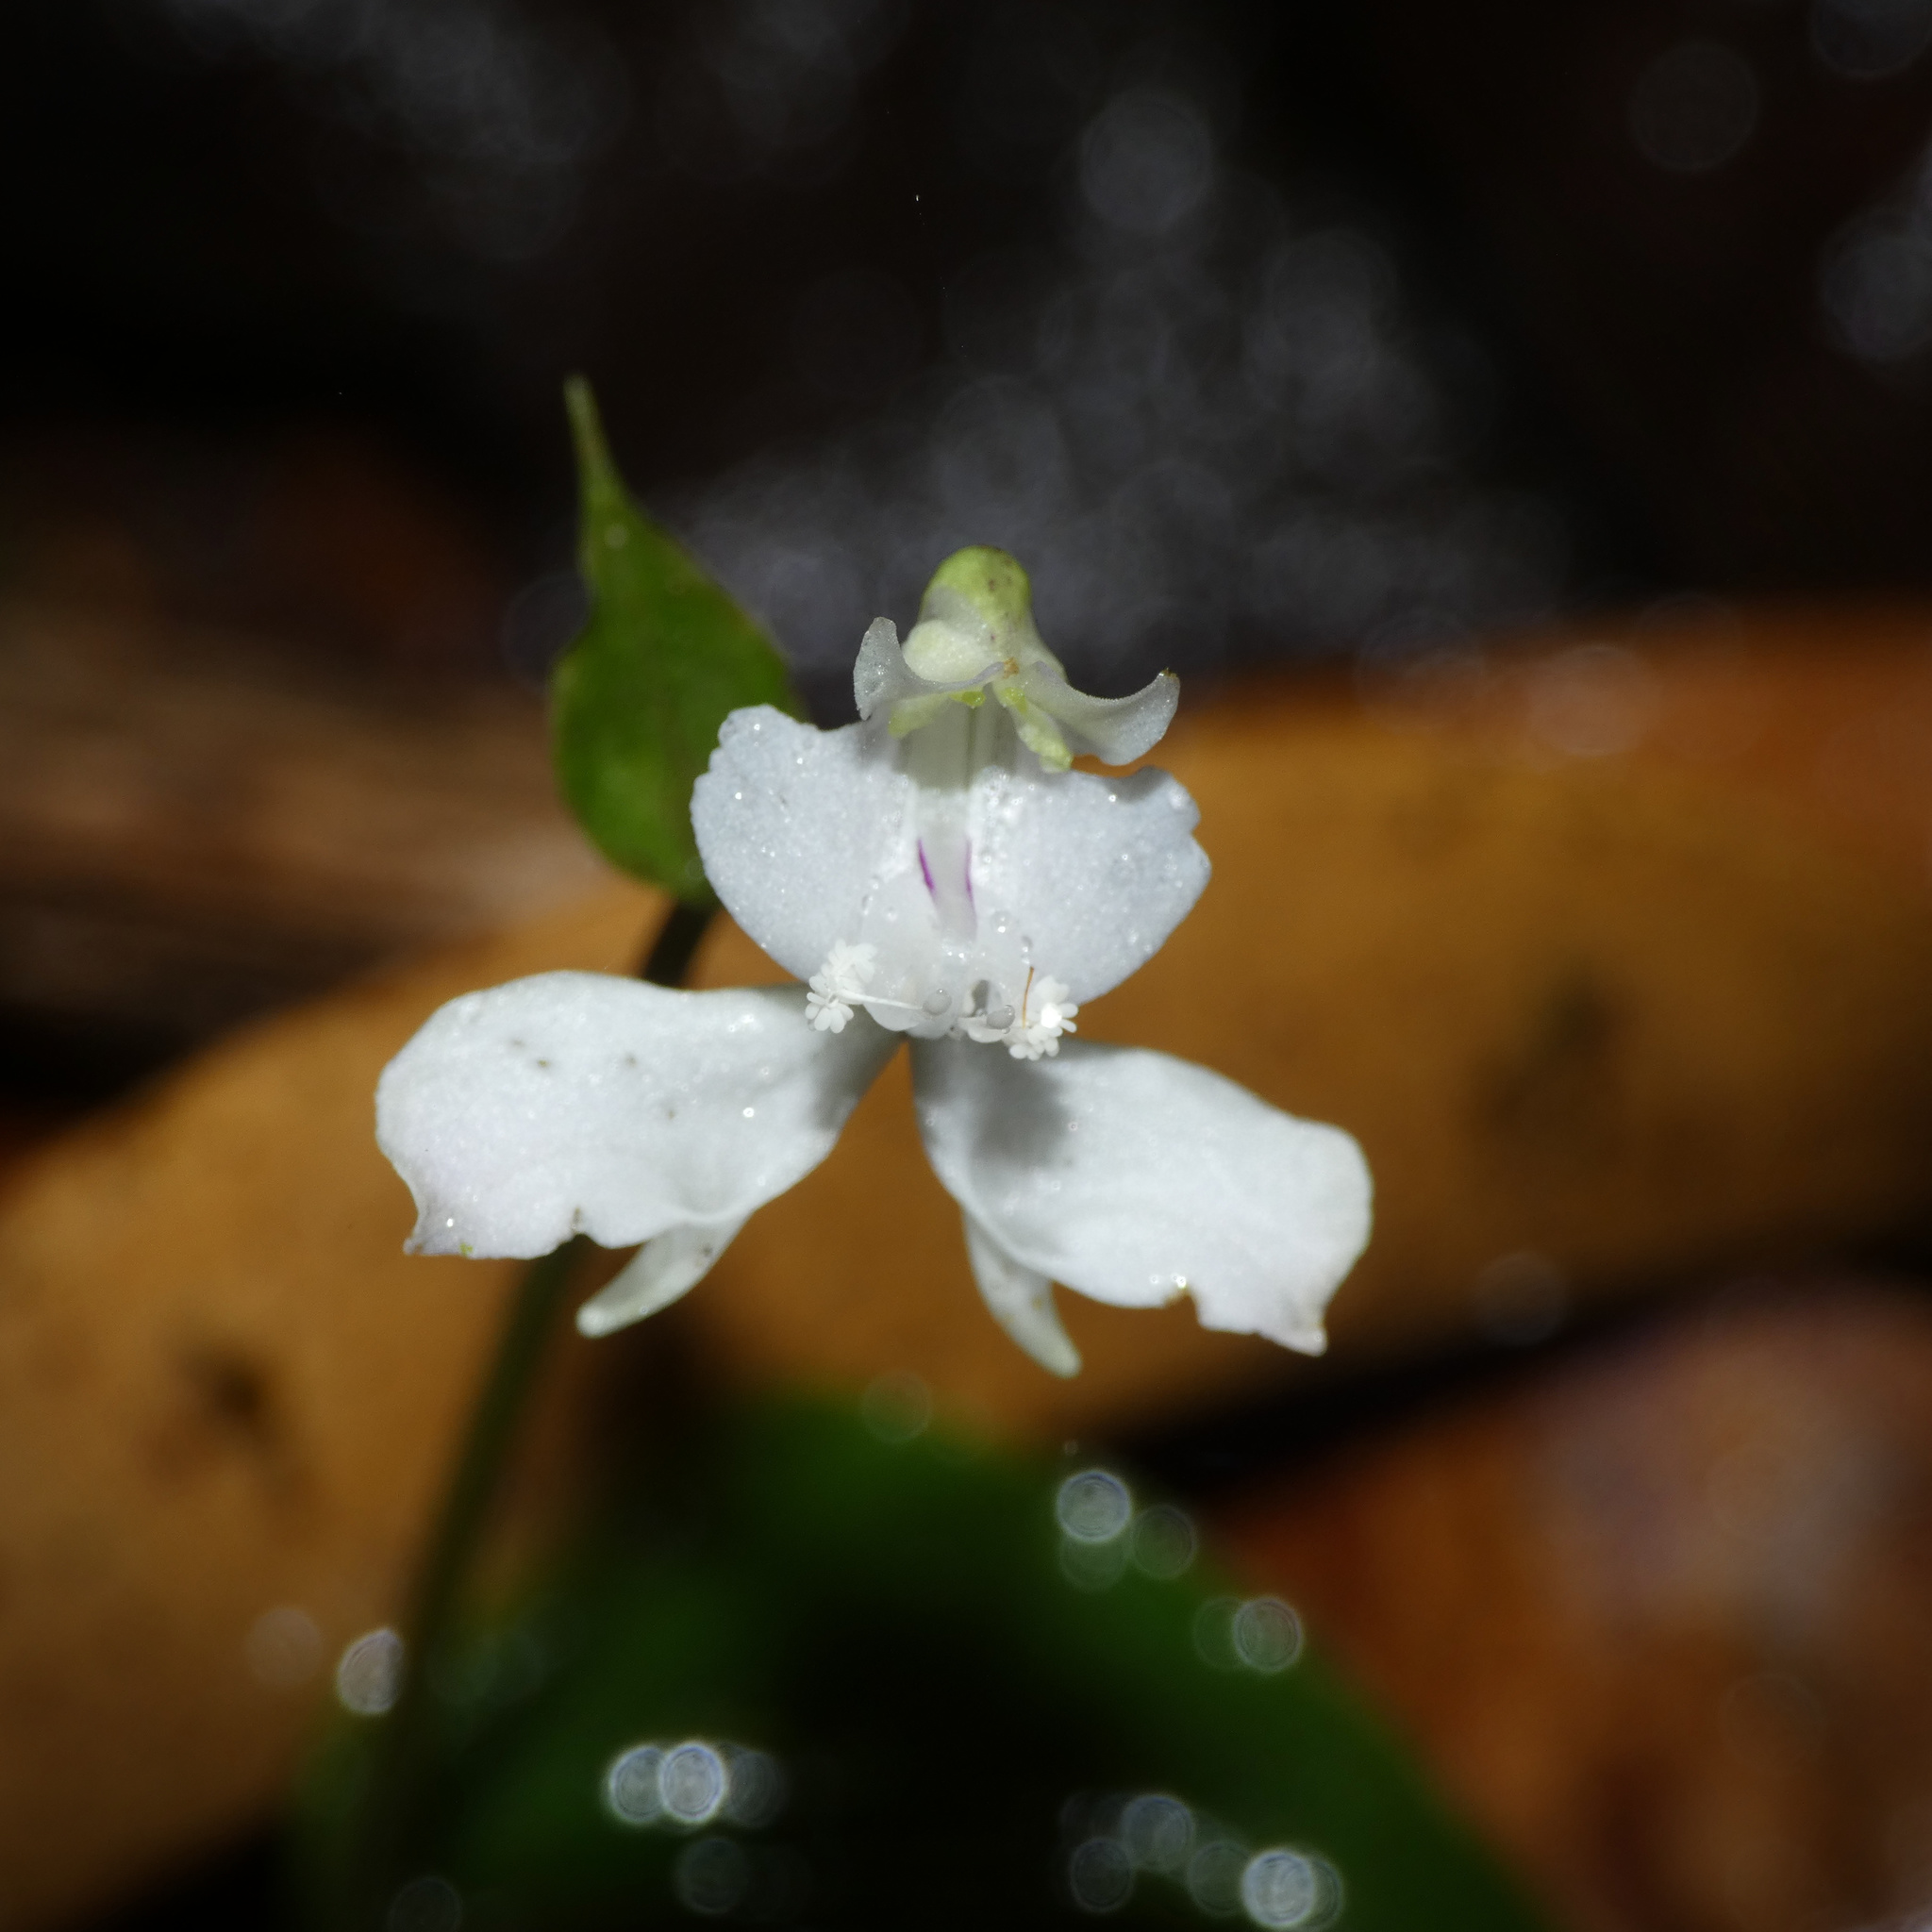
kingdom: Plantae
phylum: Tracheophyta
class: Liliopsida
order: Asparagales
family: Orchidaceae
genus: Disperis
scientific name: Disperis virginalis
